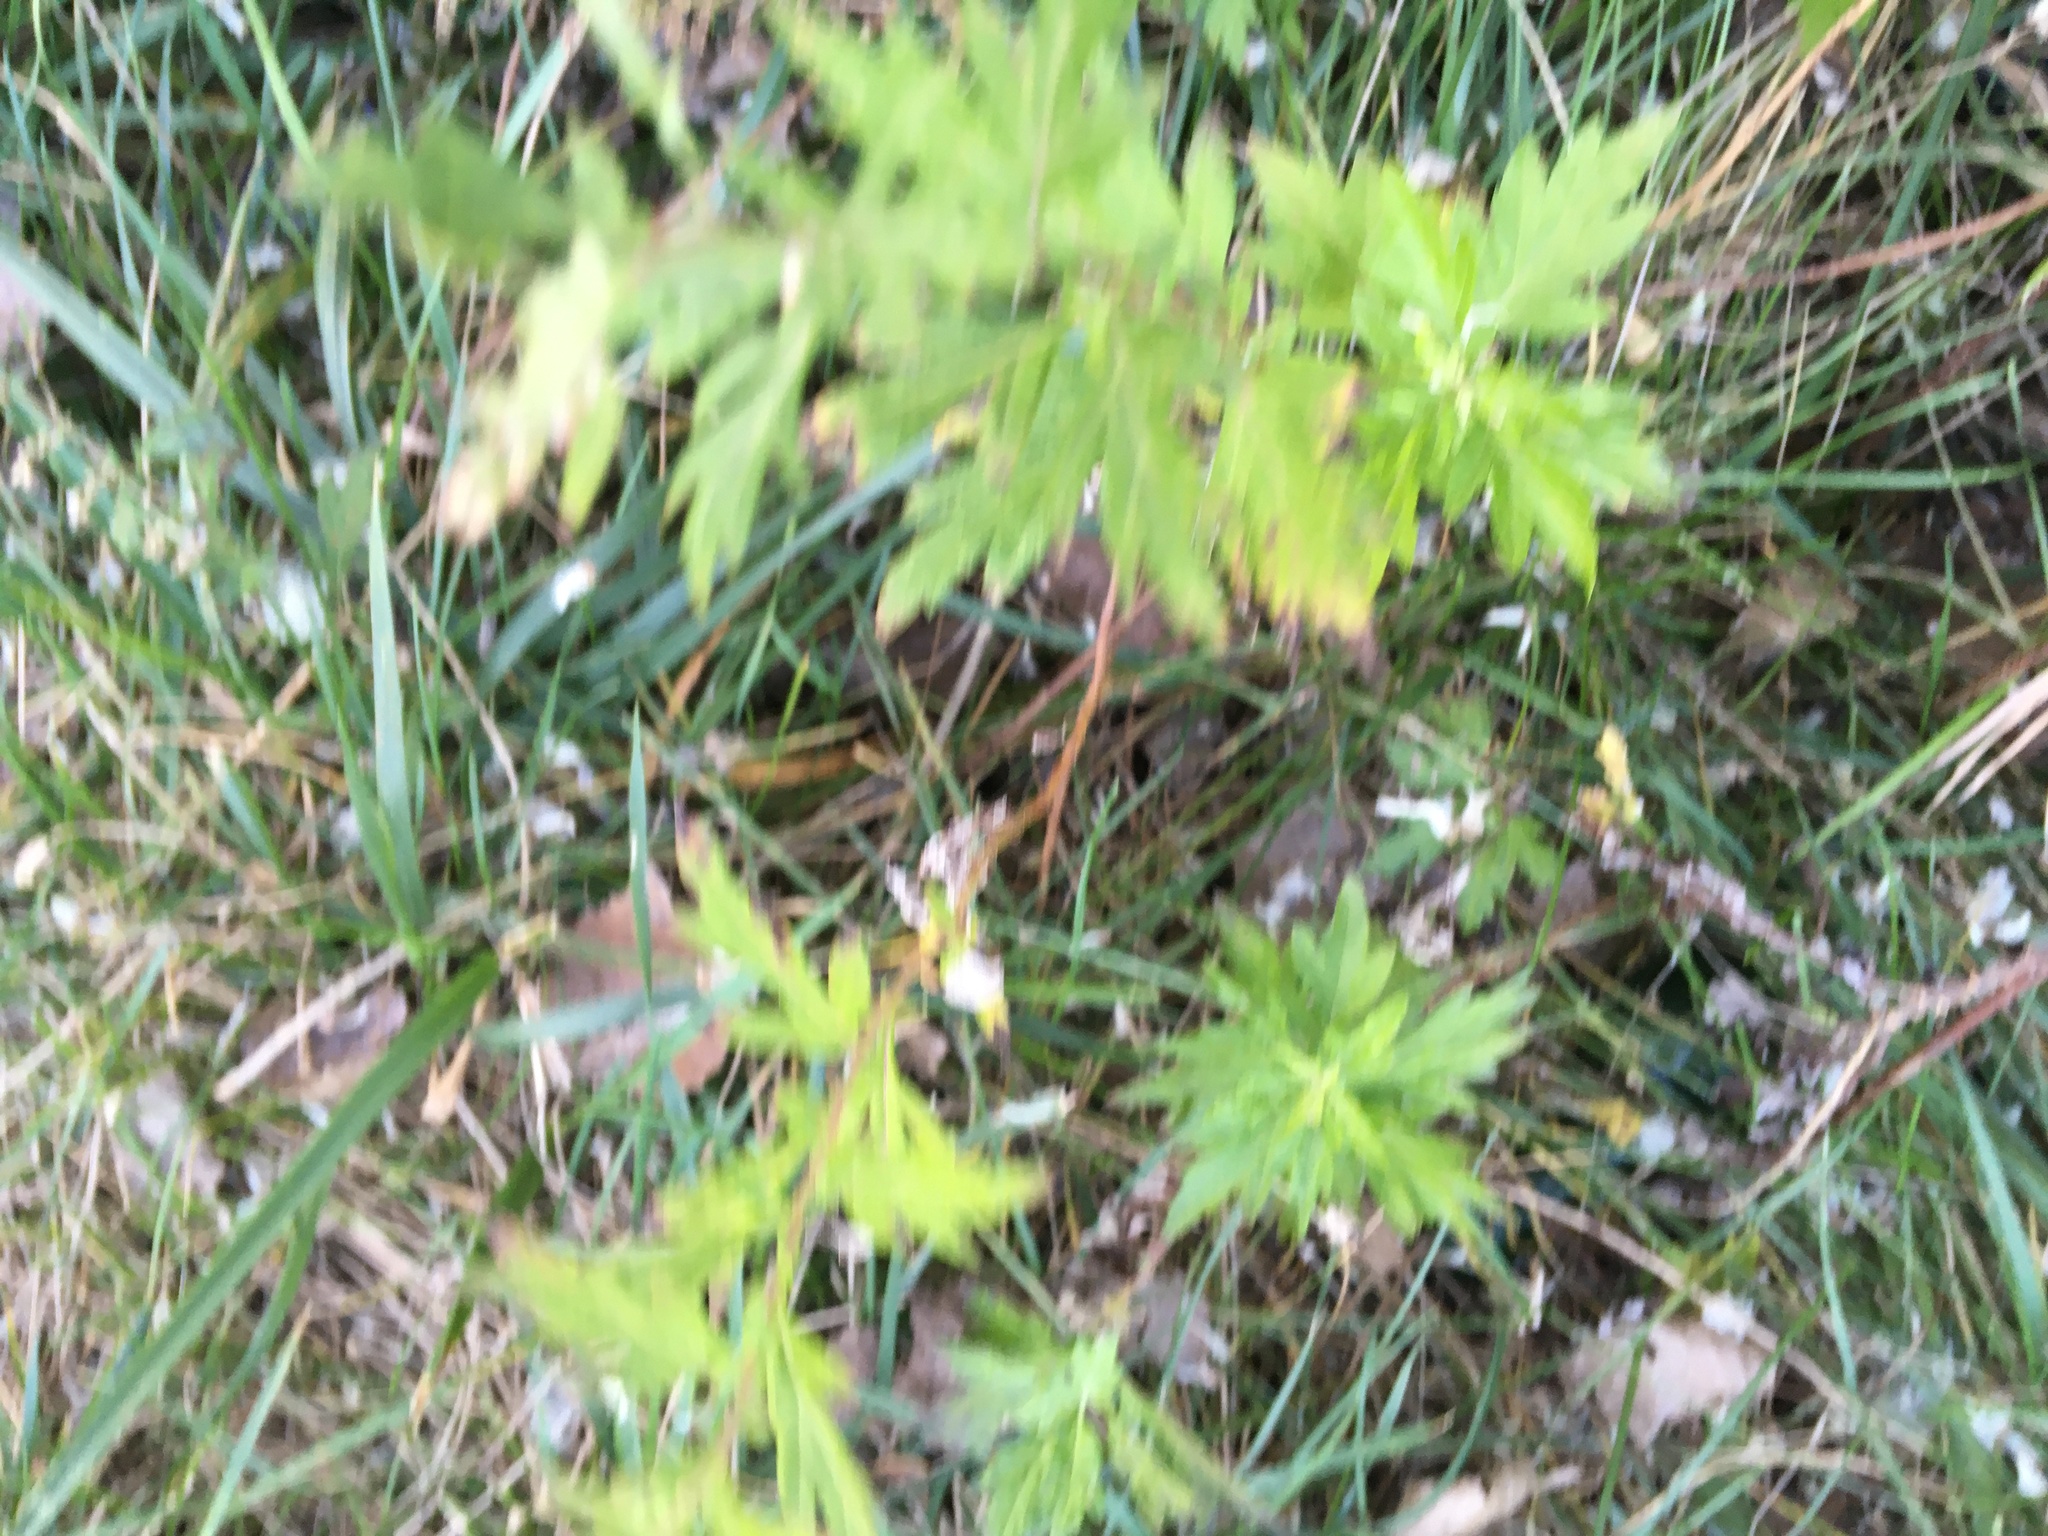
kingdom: Plantae
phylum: Tracheophyta
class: Magnoliopsida
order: Asterales
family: Asteraceae
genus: Artemisia
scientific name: Artemisia vulgaris
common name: Mugwort
